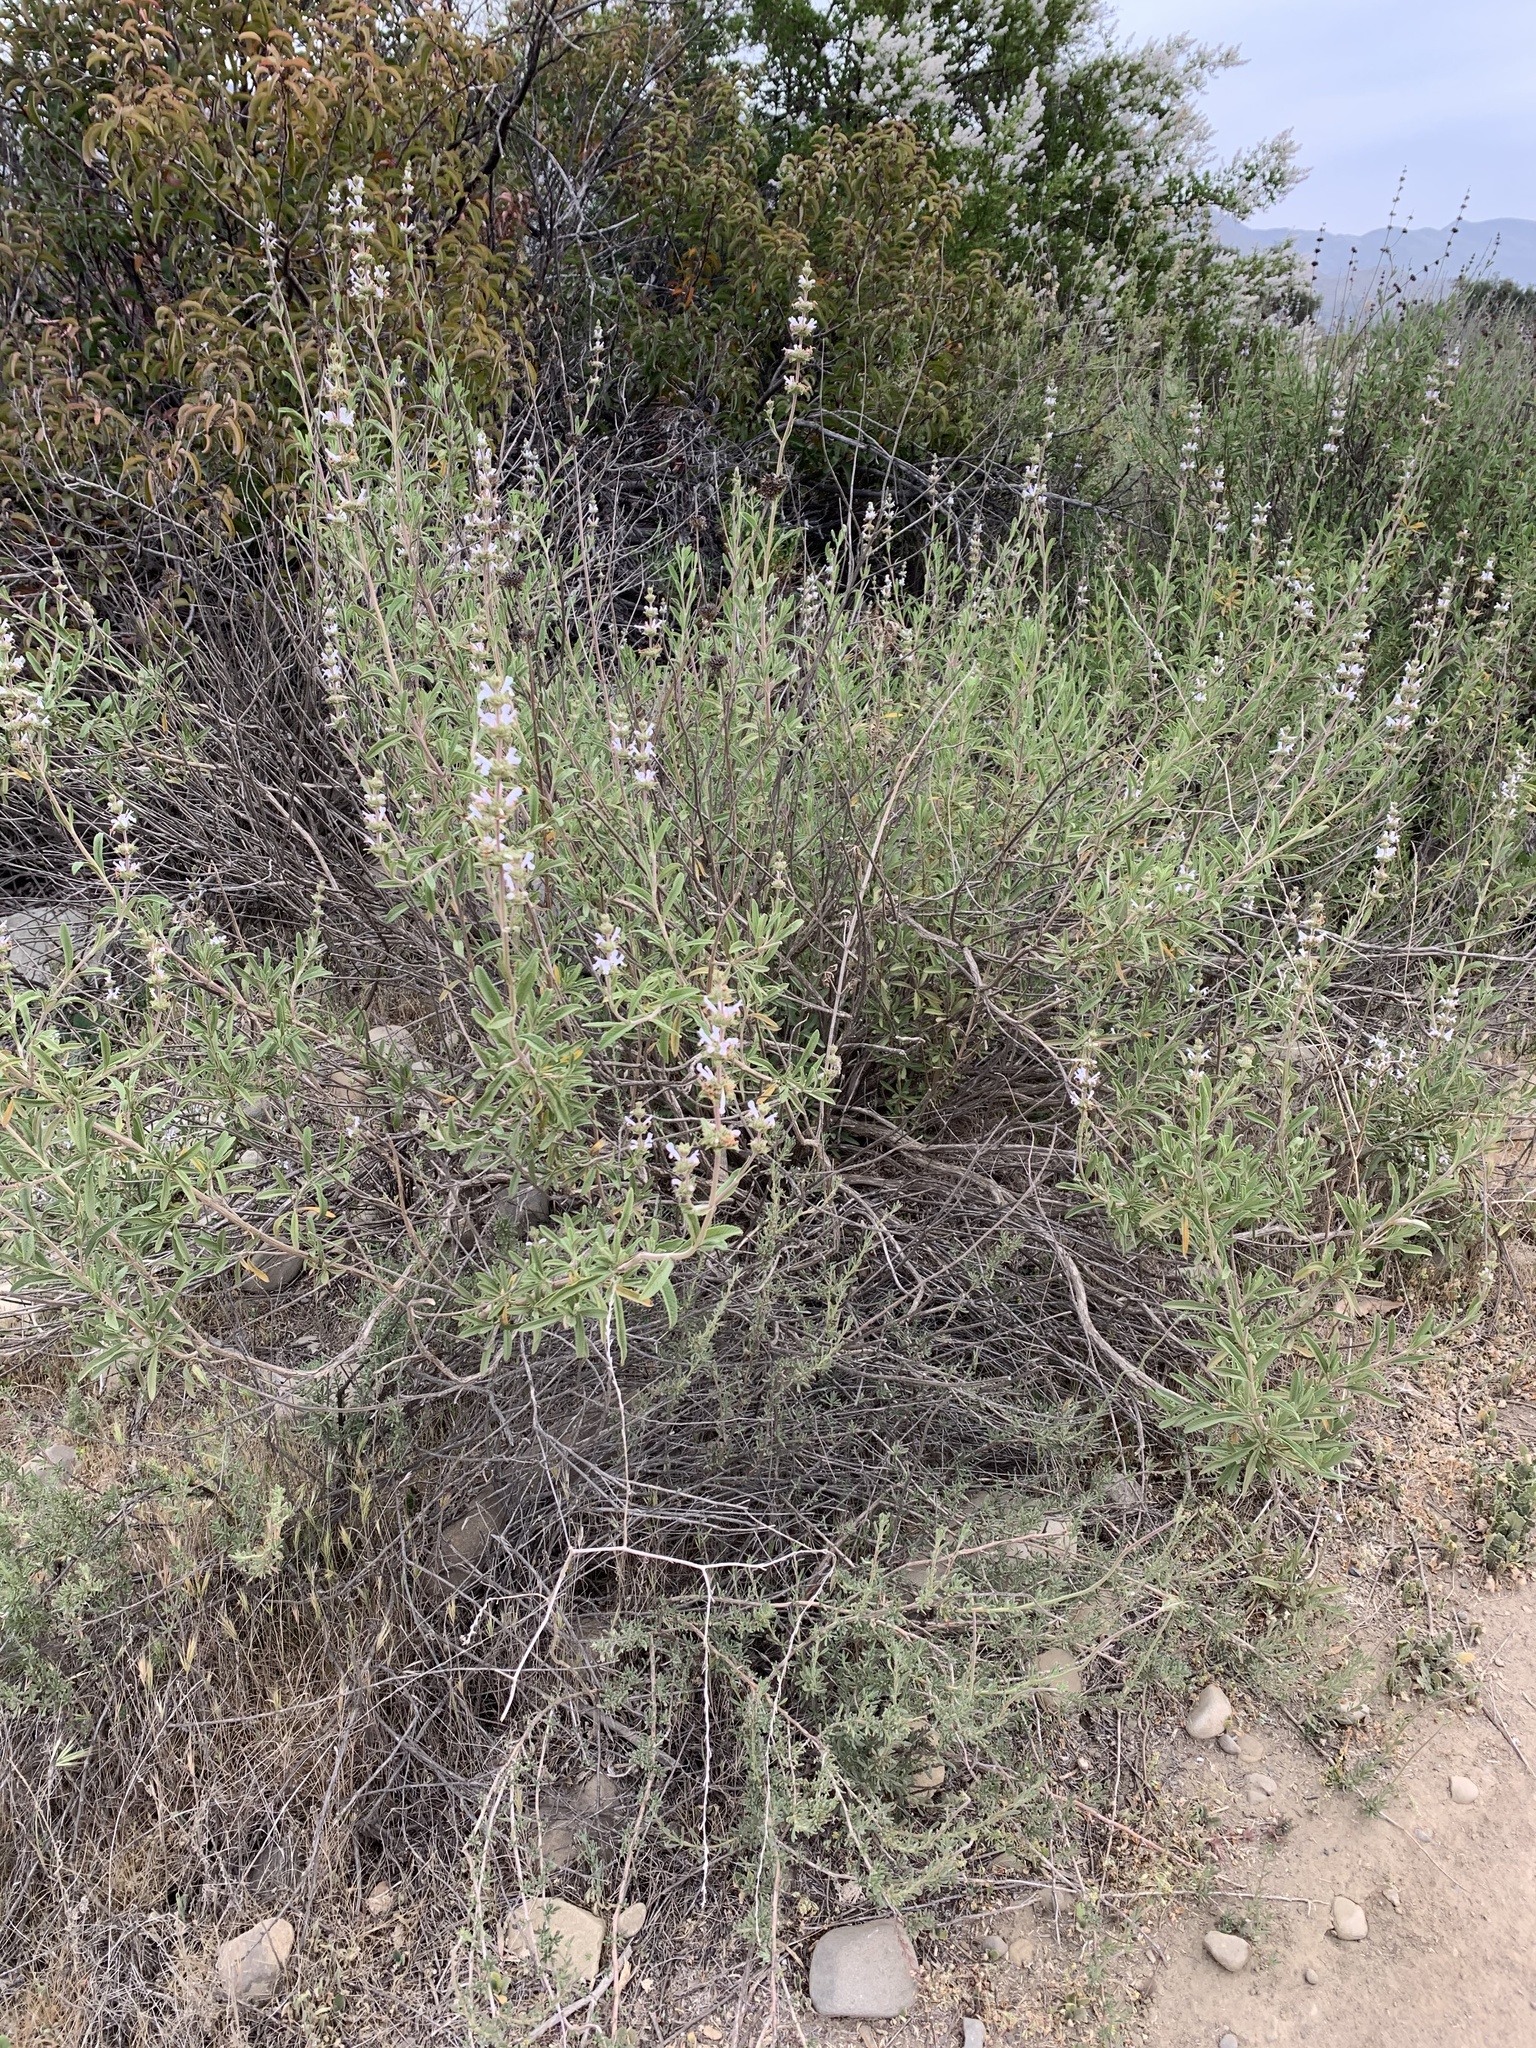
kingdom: Plantae
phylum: Tracheophyta
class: Magnoliopsida
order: Lamiales
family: Lamiaceae
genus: Salvia
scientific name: Salvia mellifera
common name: Black sage
